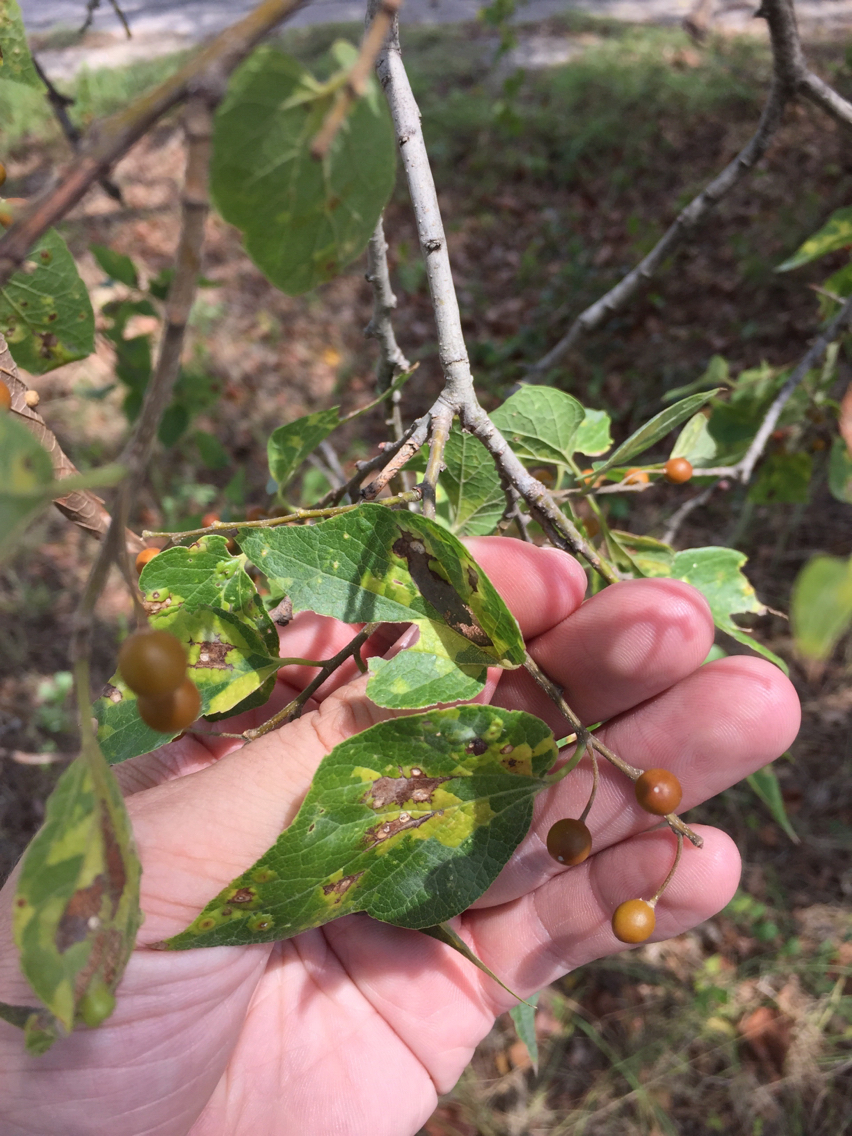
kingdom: Plantae
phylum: Tracheophyta
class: Magnoliopsida
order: Rosales
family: Cannabaceae
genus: Celtis
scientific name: Celtis laevigata
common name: Sugarberry
